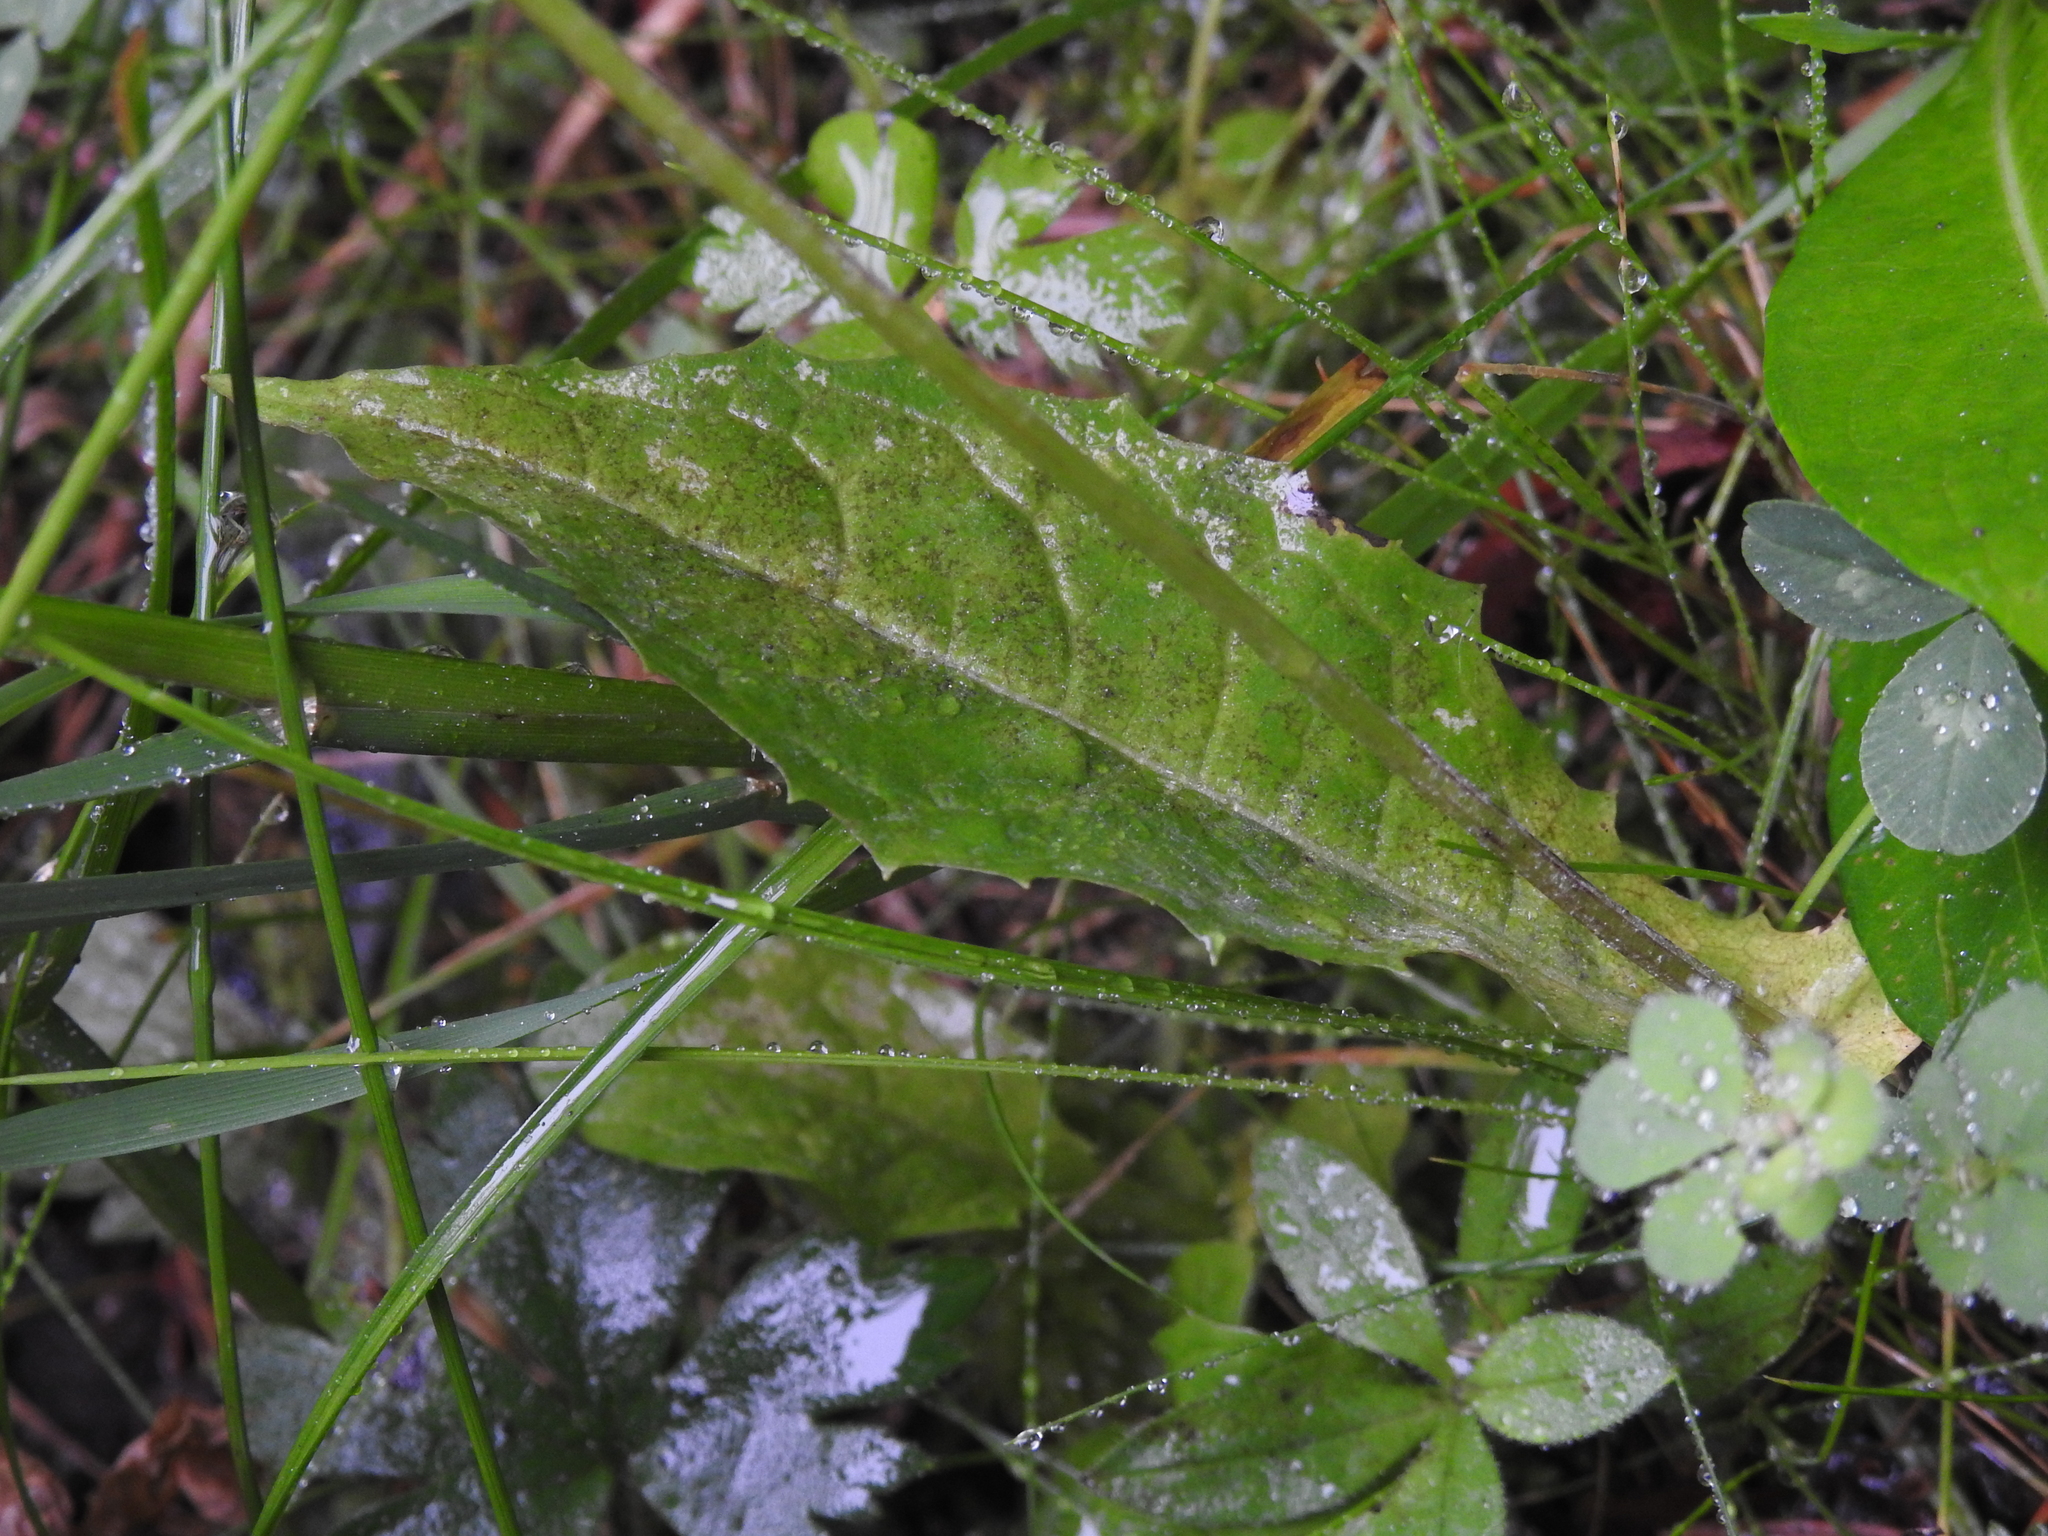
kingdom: Plantae
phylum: Tracheophyta
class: Magnoliopsida
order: Asterales
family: Asteraceae
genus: Crepis
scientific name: Crepis paludosa
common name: Marsh hawk's-beard
